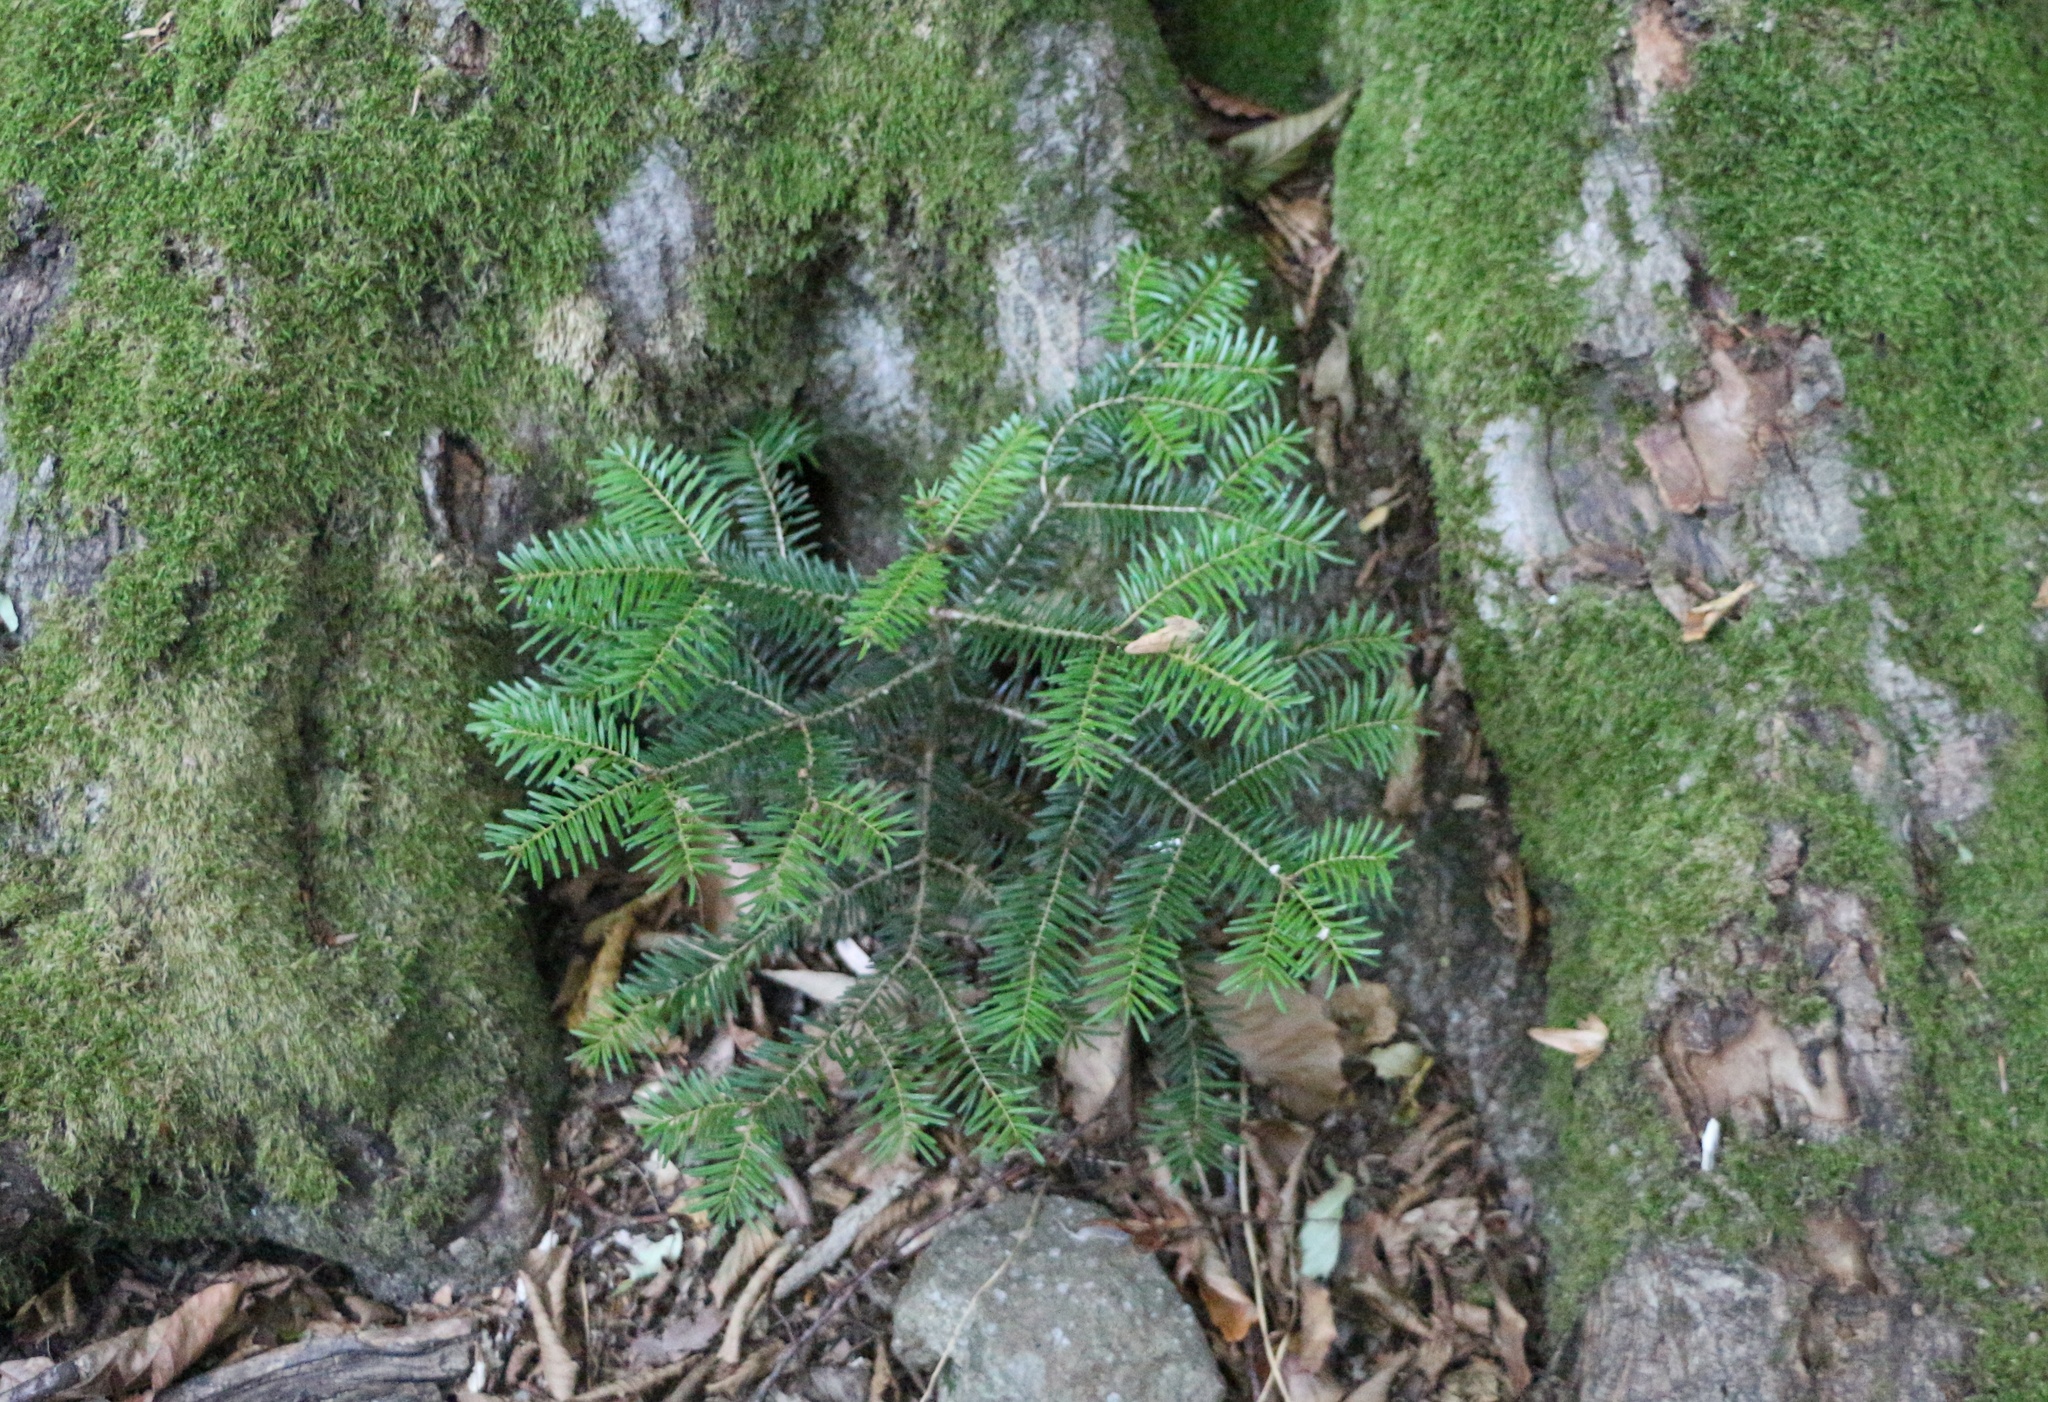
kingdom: Plantae
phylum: Tracheophyta
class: Pinopsida
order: Pinales
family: Pinaceae
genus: Abies
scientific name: Abies nordmanniana
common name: Caucasian fir
